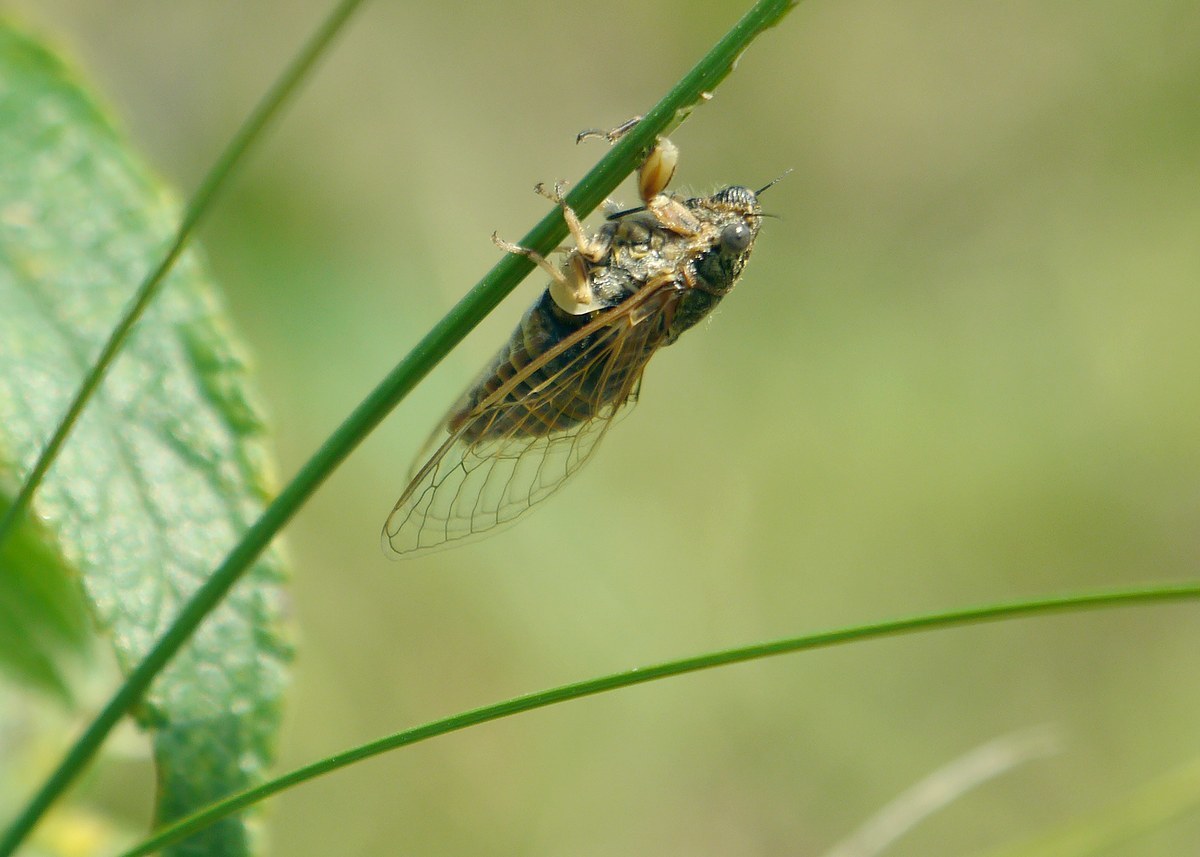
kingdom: Animalia
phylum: Arthropoda
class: Insecta
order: Hemiptera
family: Cicadidae
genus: Oligoglena
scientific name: Oligoglena tibialis
